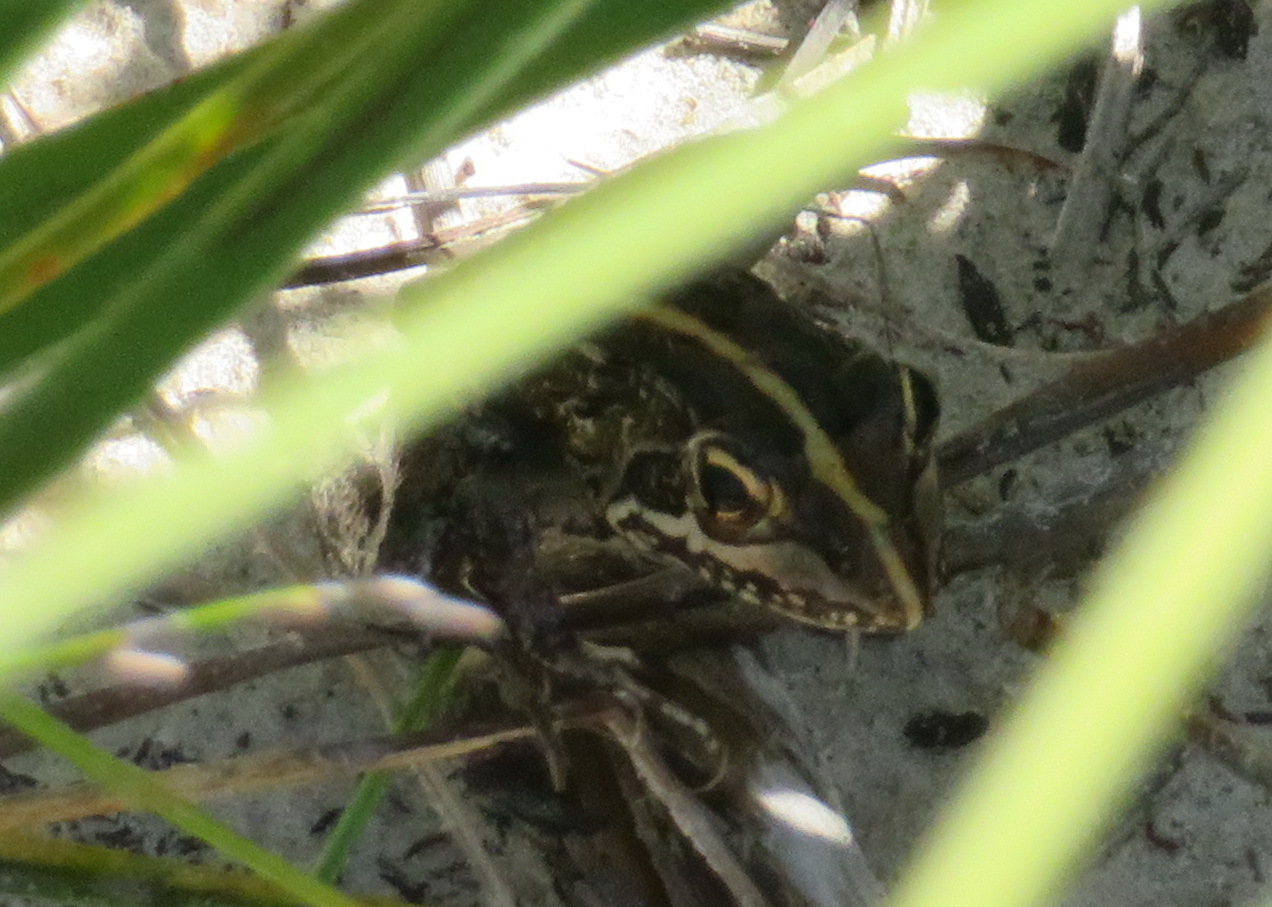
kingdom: Animalia
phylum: Chordata
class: Amphibia
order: Anura
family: Pyxicephalidae
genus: Amietia
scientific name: Amietia fuscigula
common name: Cape rana
